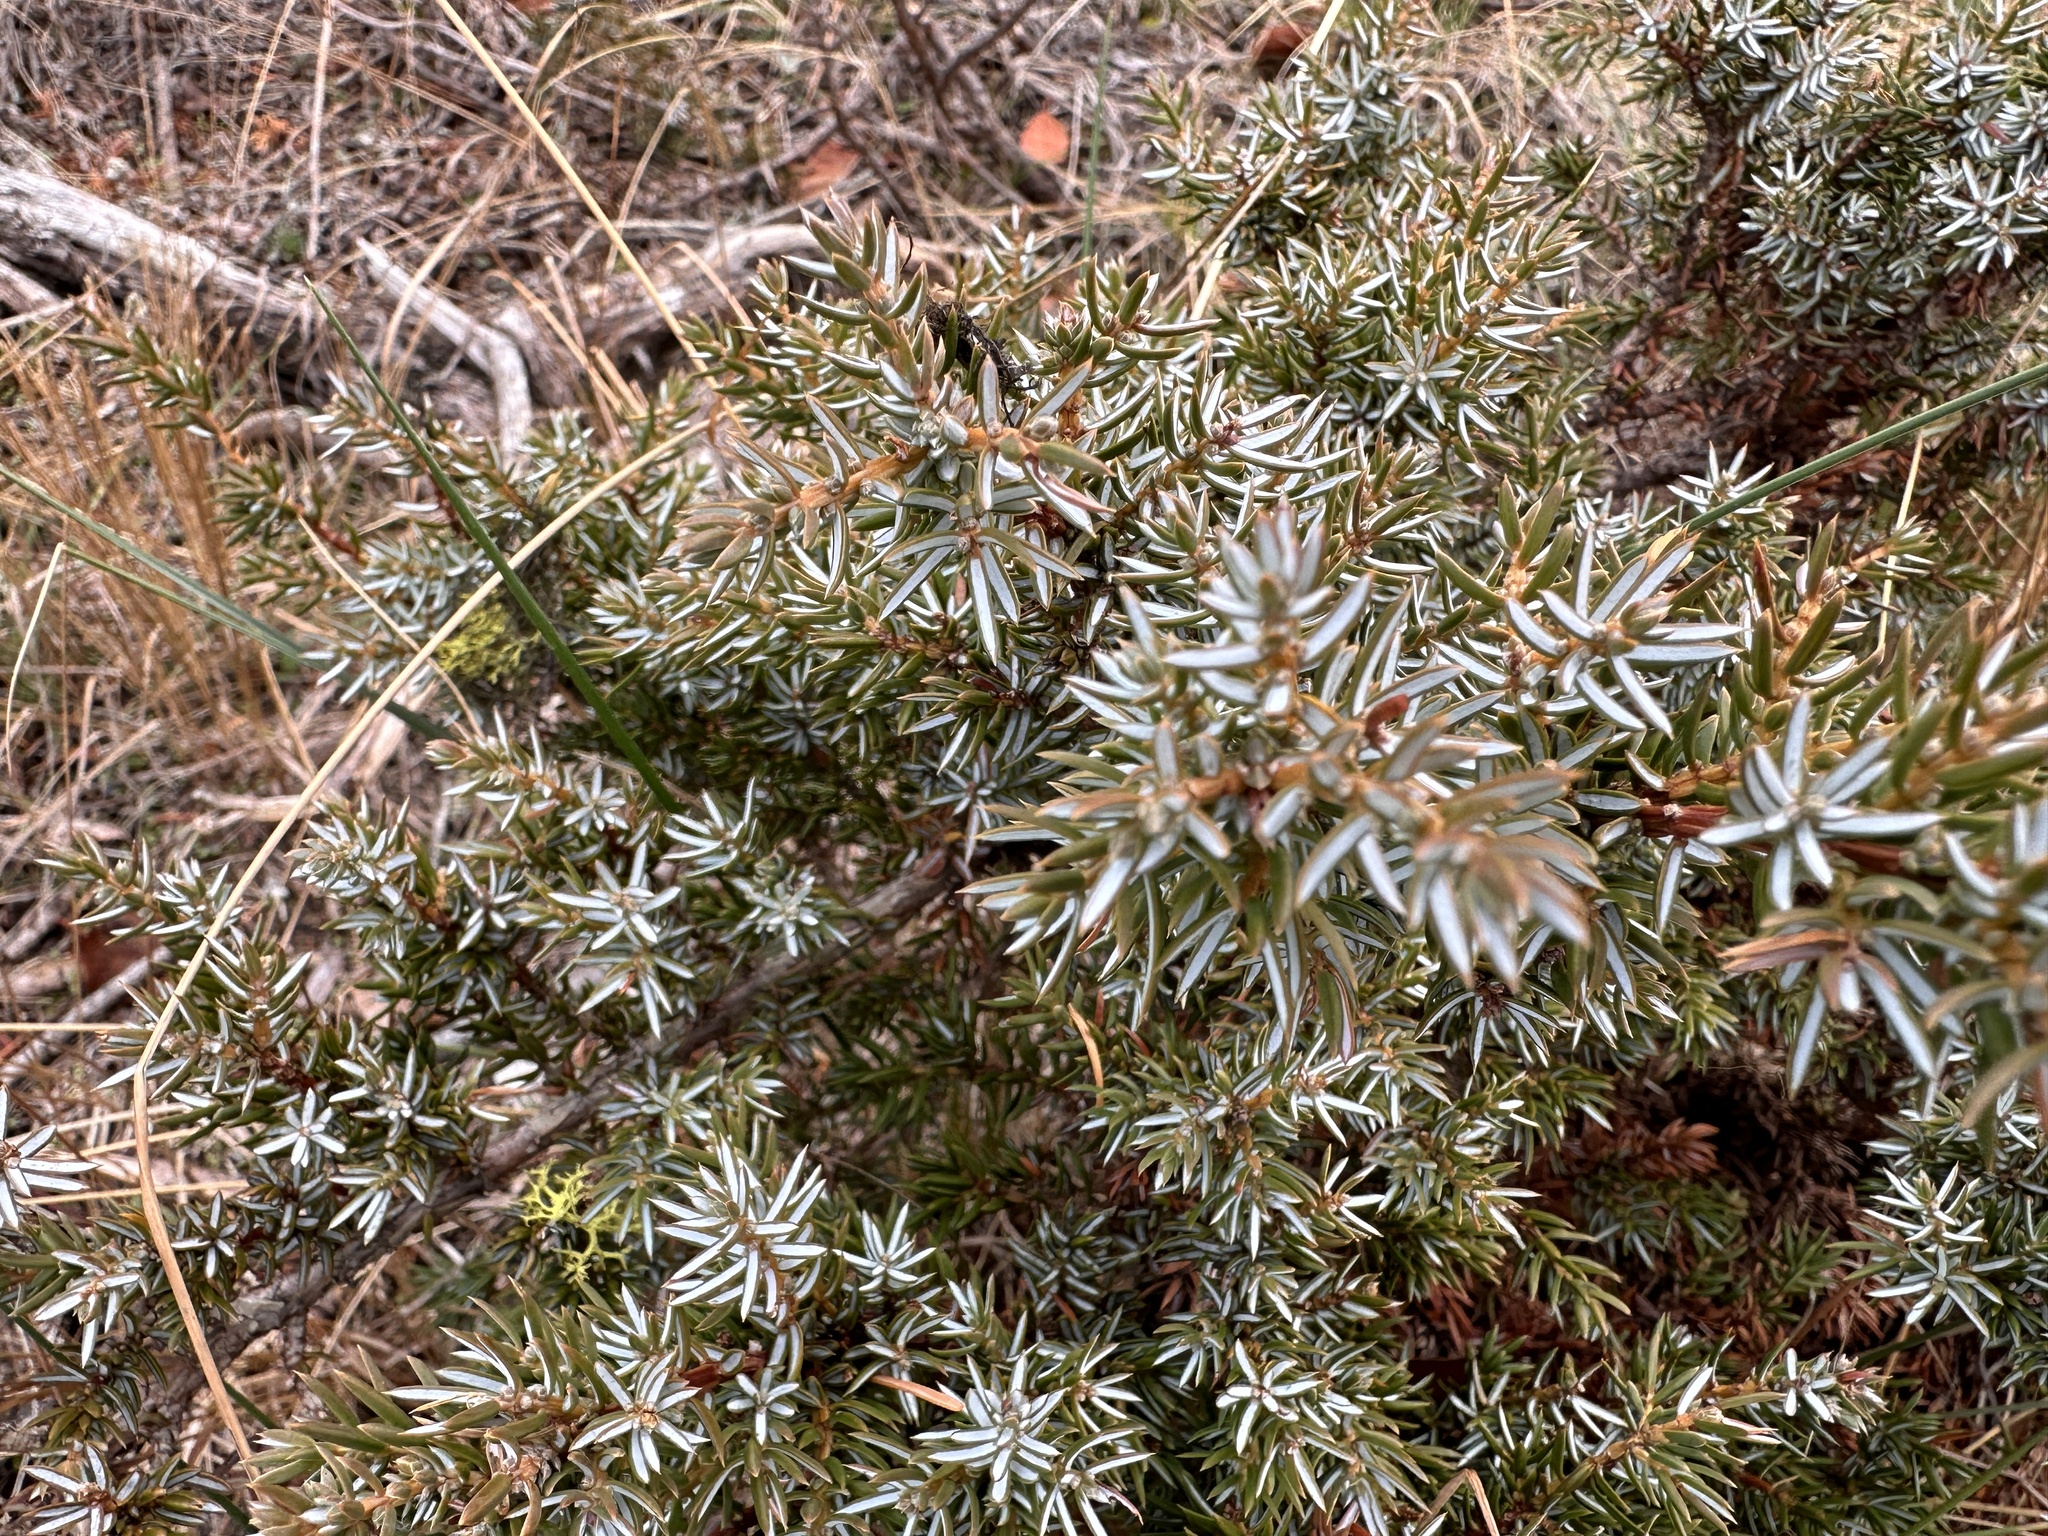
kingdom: Plantae
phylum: Tracheophyta
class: Pinopsida
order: Pinales
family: Cupressaceae
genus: Juniperus
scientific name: Juniperus communis
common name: Common juniper
